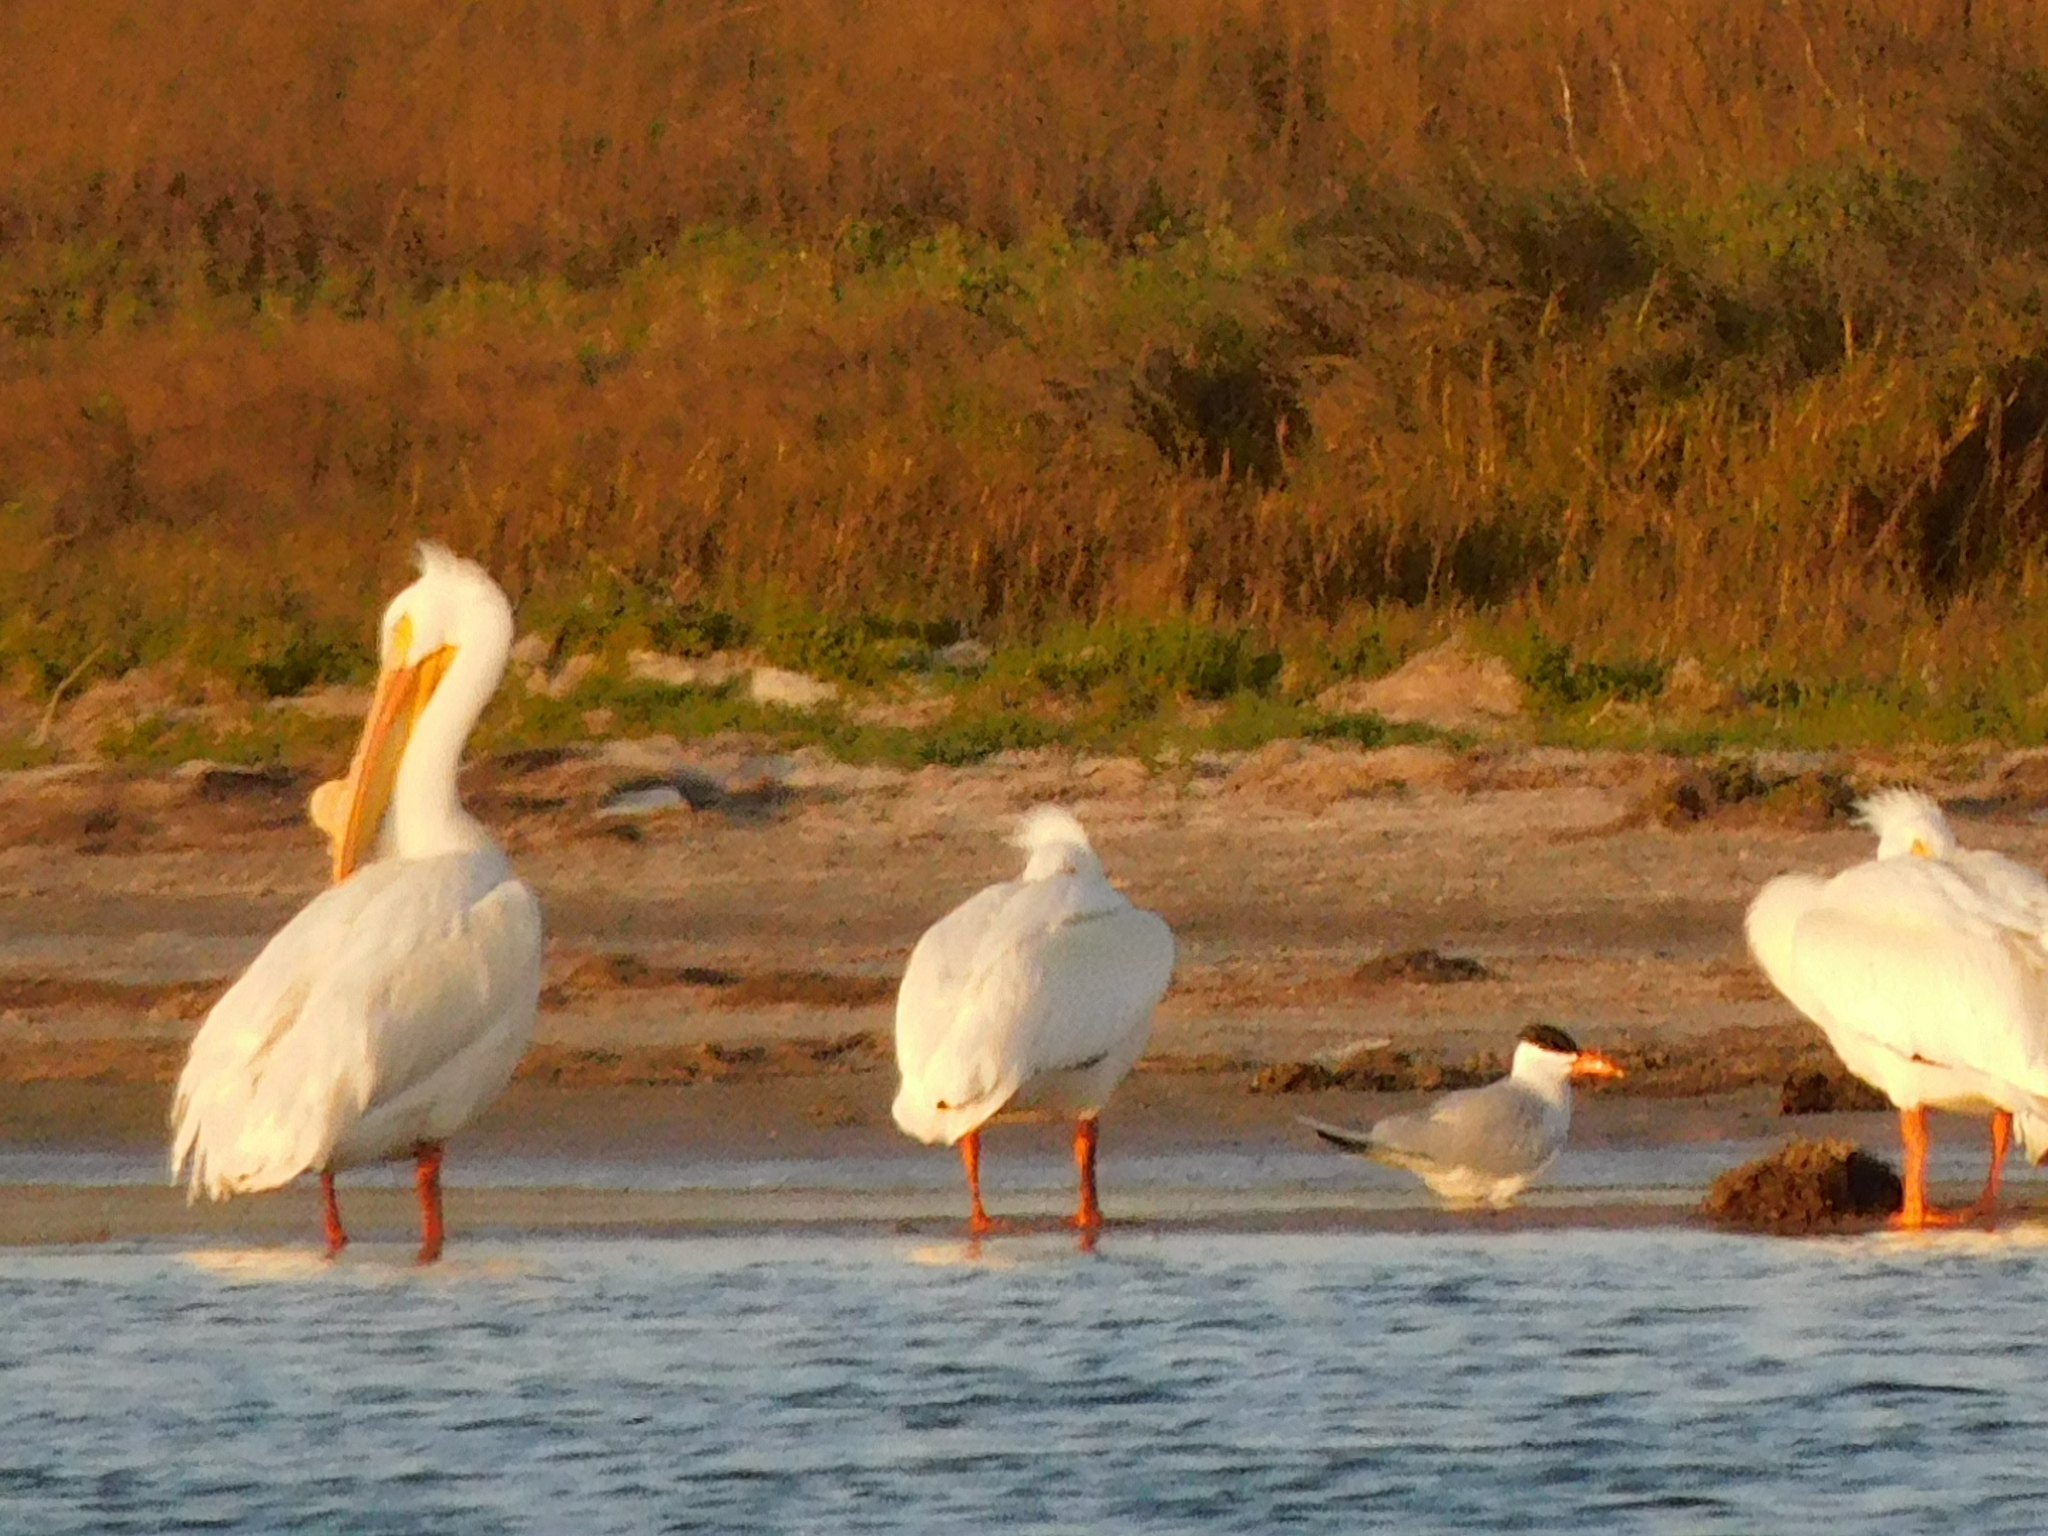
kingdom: Animalia
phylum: Chordata
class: Aves
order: Charadriiformes
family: Laridae
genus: Hydroprogne
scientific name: Hydroprogne caspia
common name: Caspian tern
